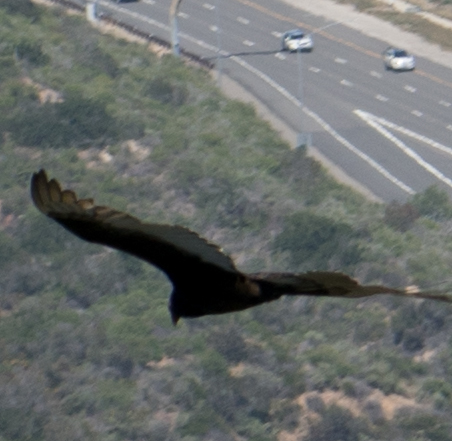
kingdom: Animalia
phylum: Chordata
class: Aves
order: Accipitriformes
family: Cathartidae
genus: Cathartes
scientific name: Cathartes aura
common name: Turkey vulture
